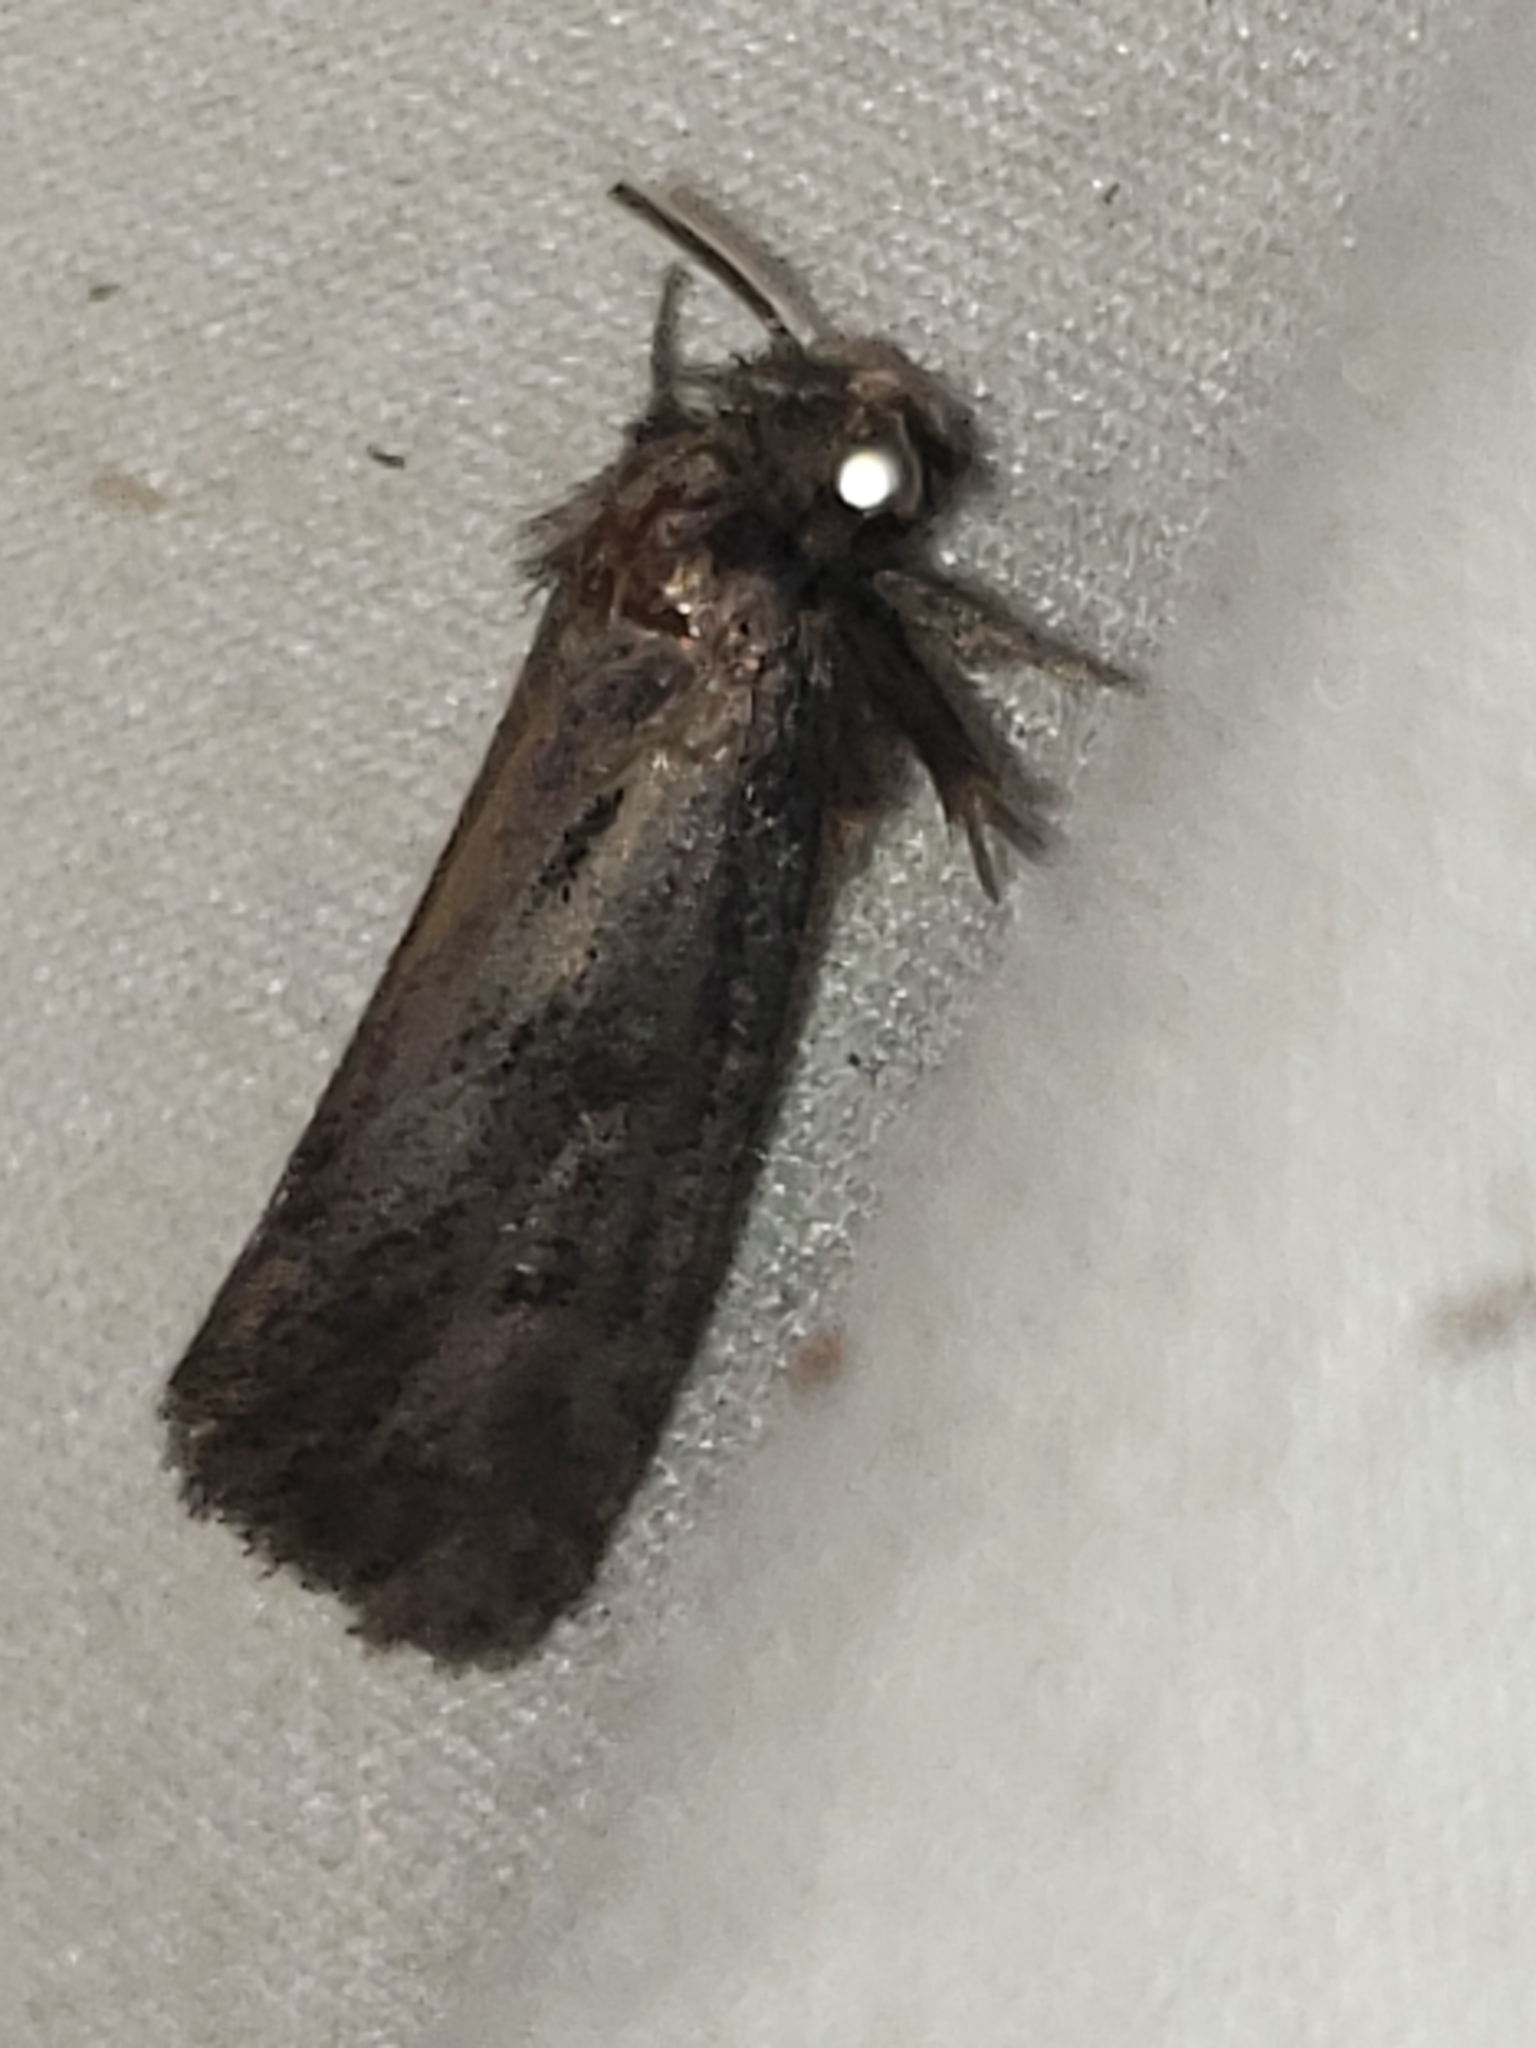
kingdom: Animalia
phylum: Arthropoda
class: Insecta
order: Lepidoptera
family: Tineidae
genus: Acrolophus
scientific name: Acrolophus popeanella
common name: Clemens' grass tubeworm moth
